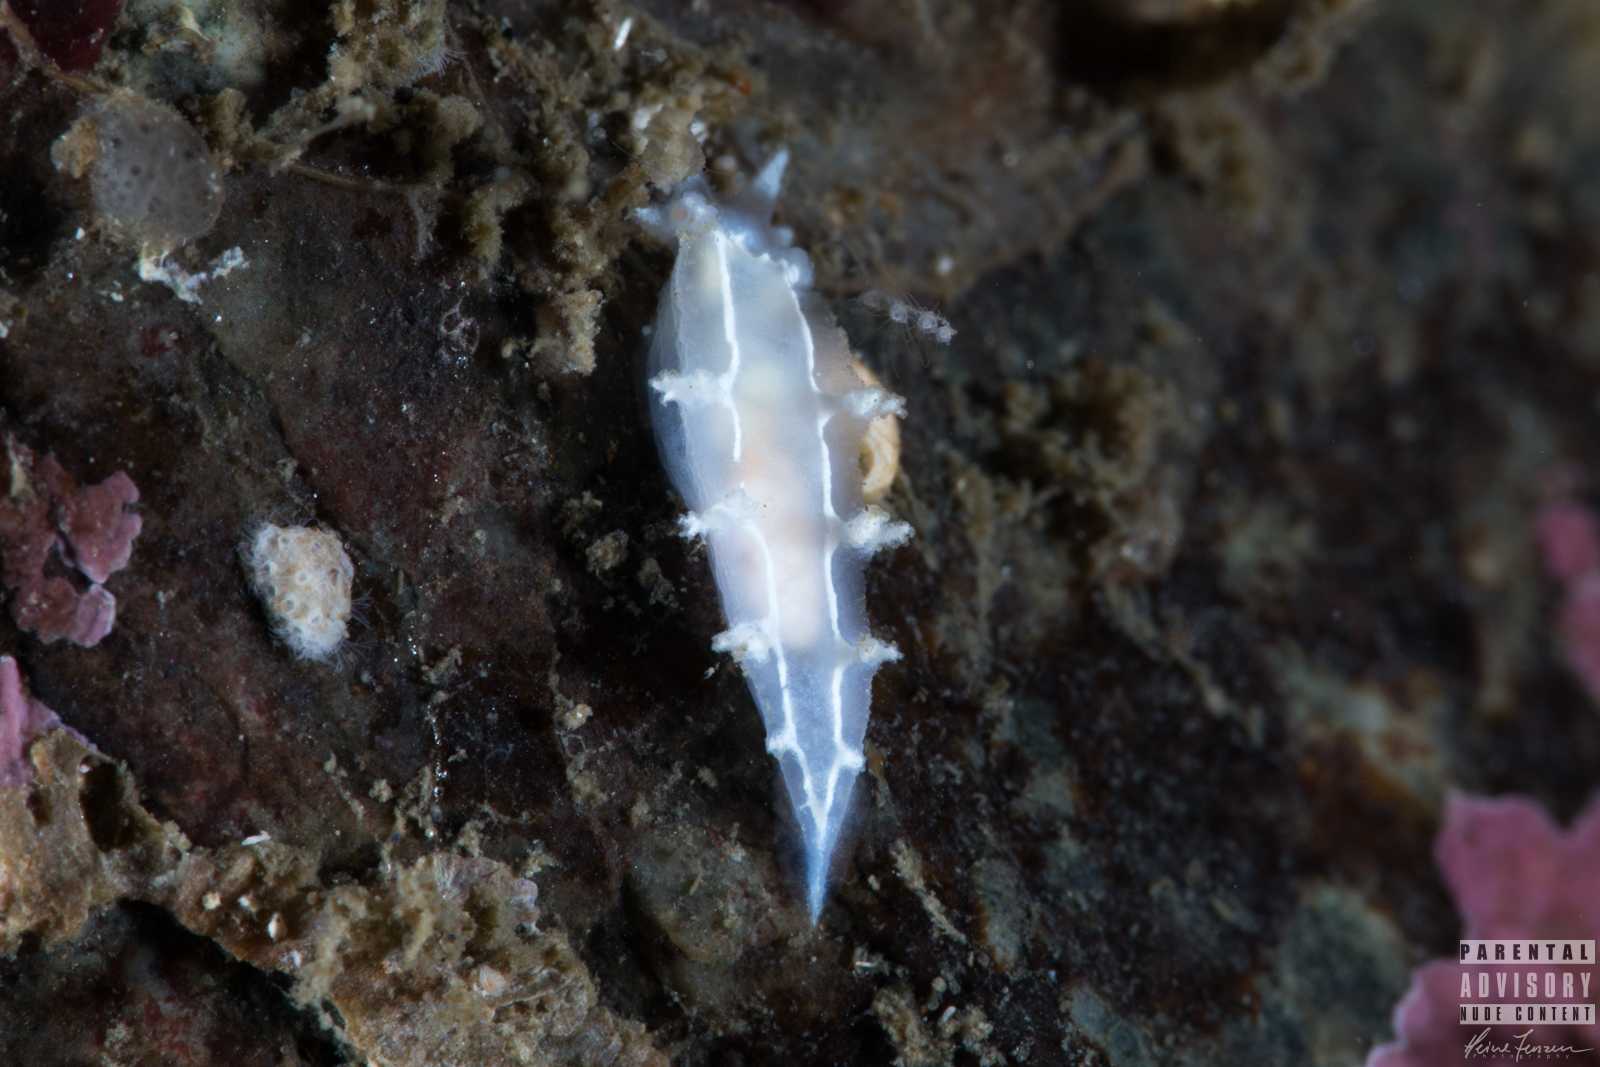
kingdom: Animalia
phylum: Mollusca
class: Gastropoda
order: Nudibranchia
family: Tritoniidae
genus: Duvaucelia
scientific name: Duvaucelia lineata
